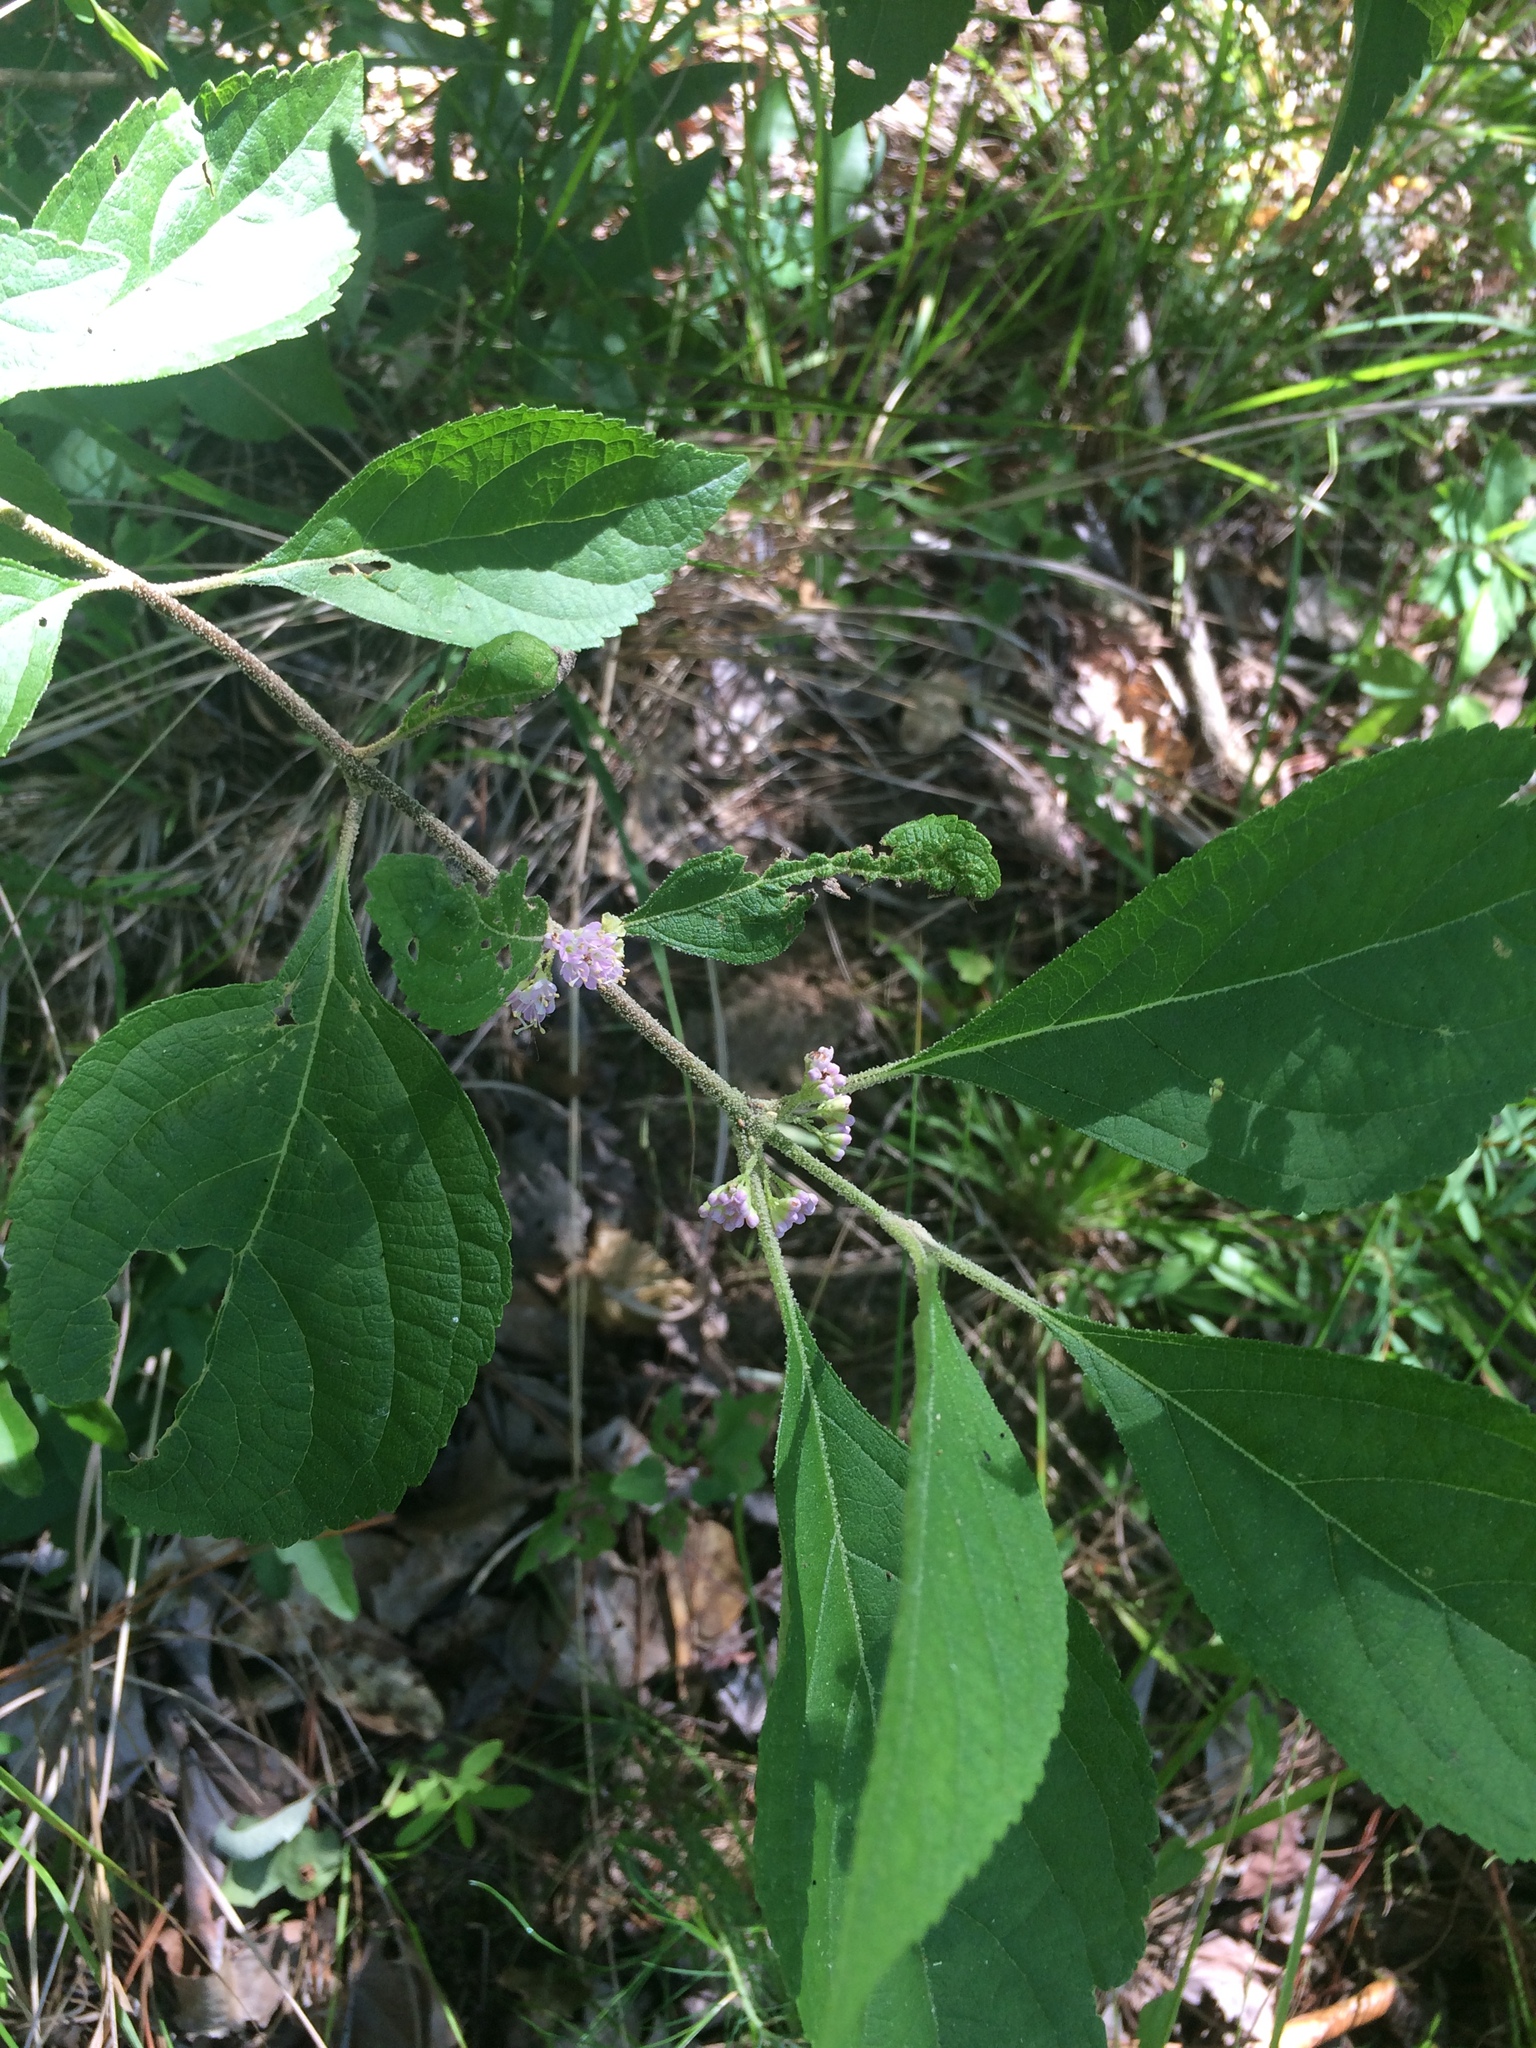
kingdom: Plantae
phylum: Tracheophyta
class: Magnoliopsida
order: Lamiales
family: Lamiaceae
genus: Callicarpa
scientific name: Callicarpa americana
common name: American beautyberry
